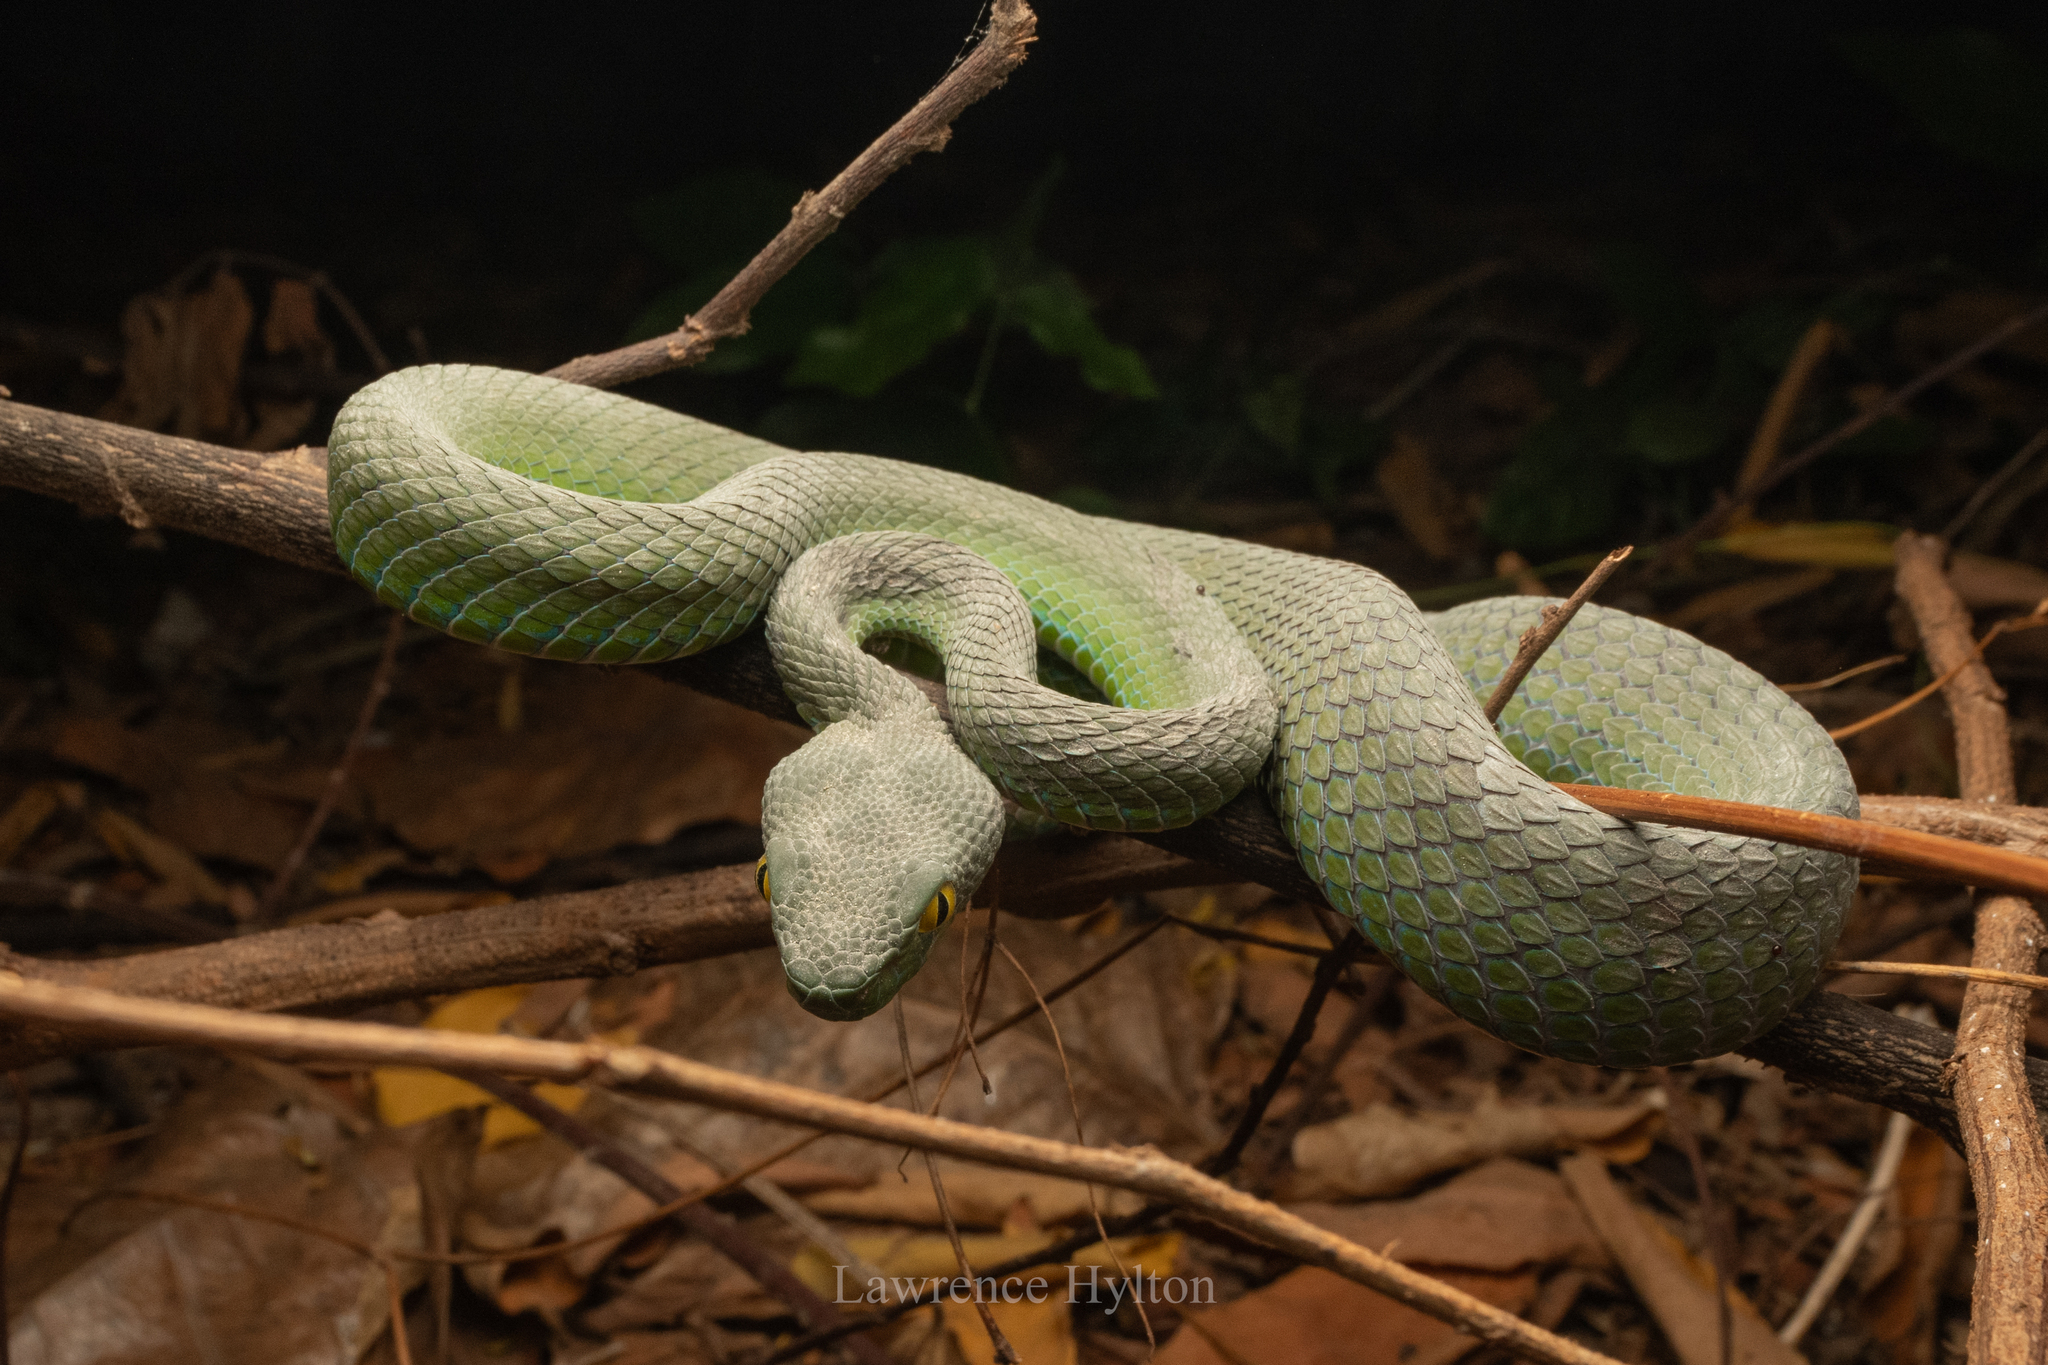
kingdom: Animalia
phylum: Chordata
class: Squamata
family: Viperidae
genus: Trimeresurus
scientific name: Trimeresurus macrops
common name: Kramer's pit viper
